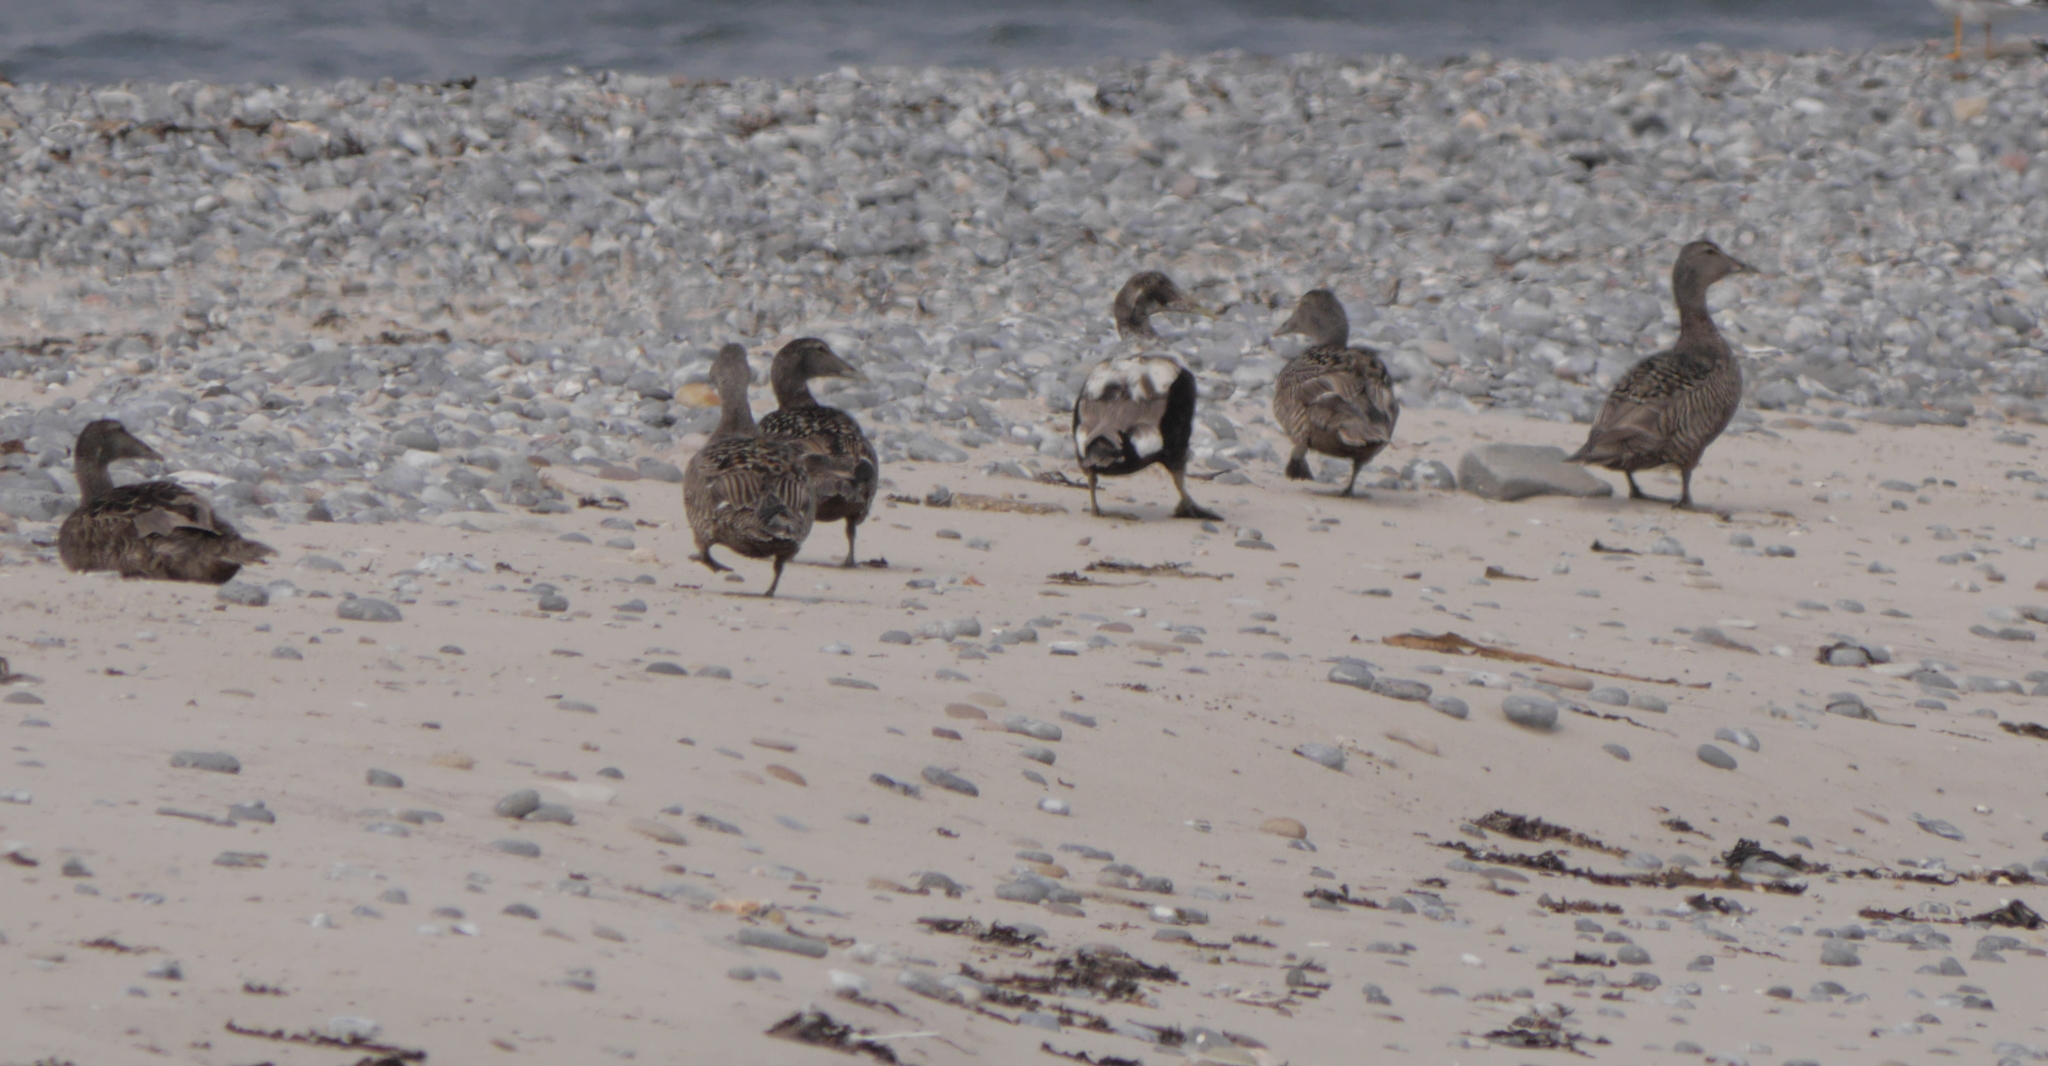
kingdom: Animalia
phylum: Chordata
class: Aves
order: Anseriformes
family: Anatidae
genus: Somateria
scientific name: Somateria mollissima
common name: Common eider
